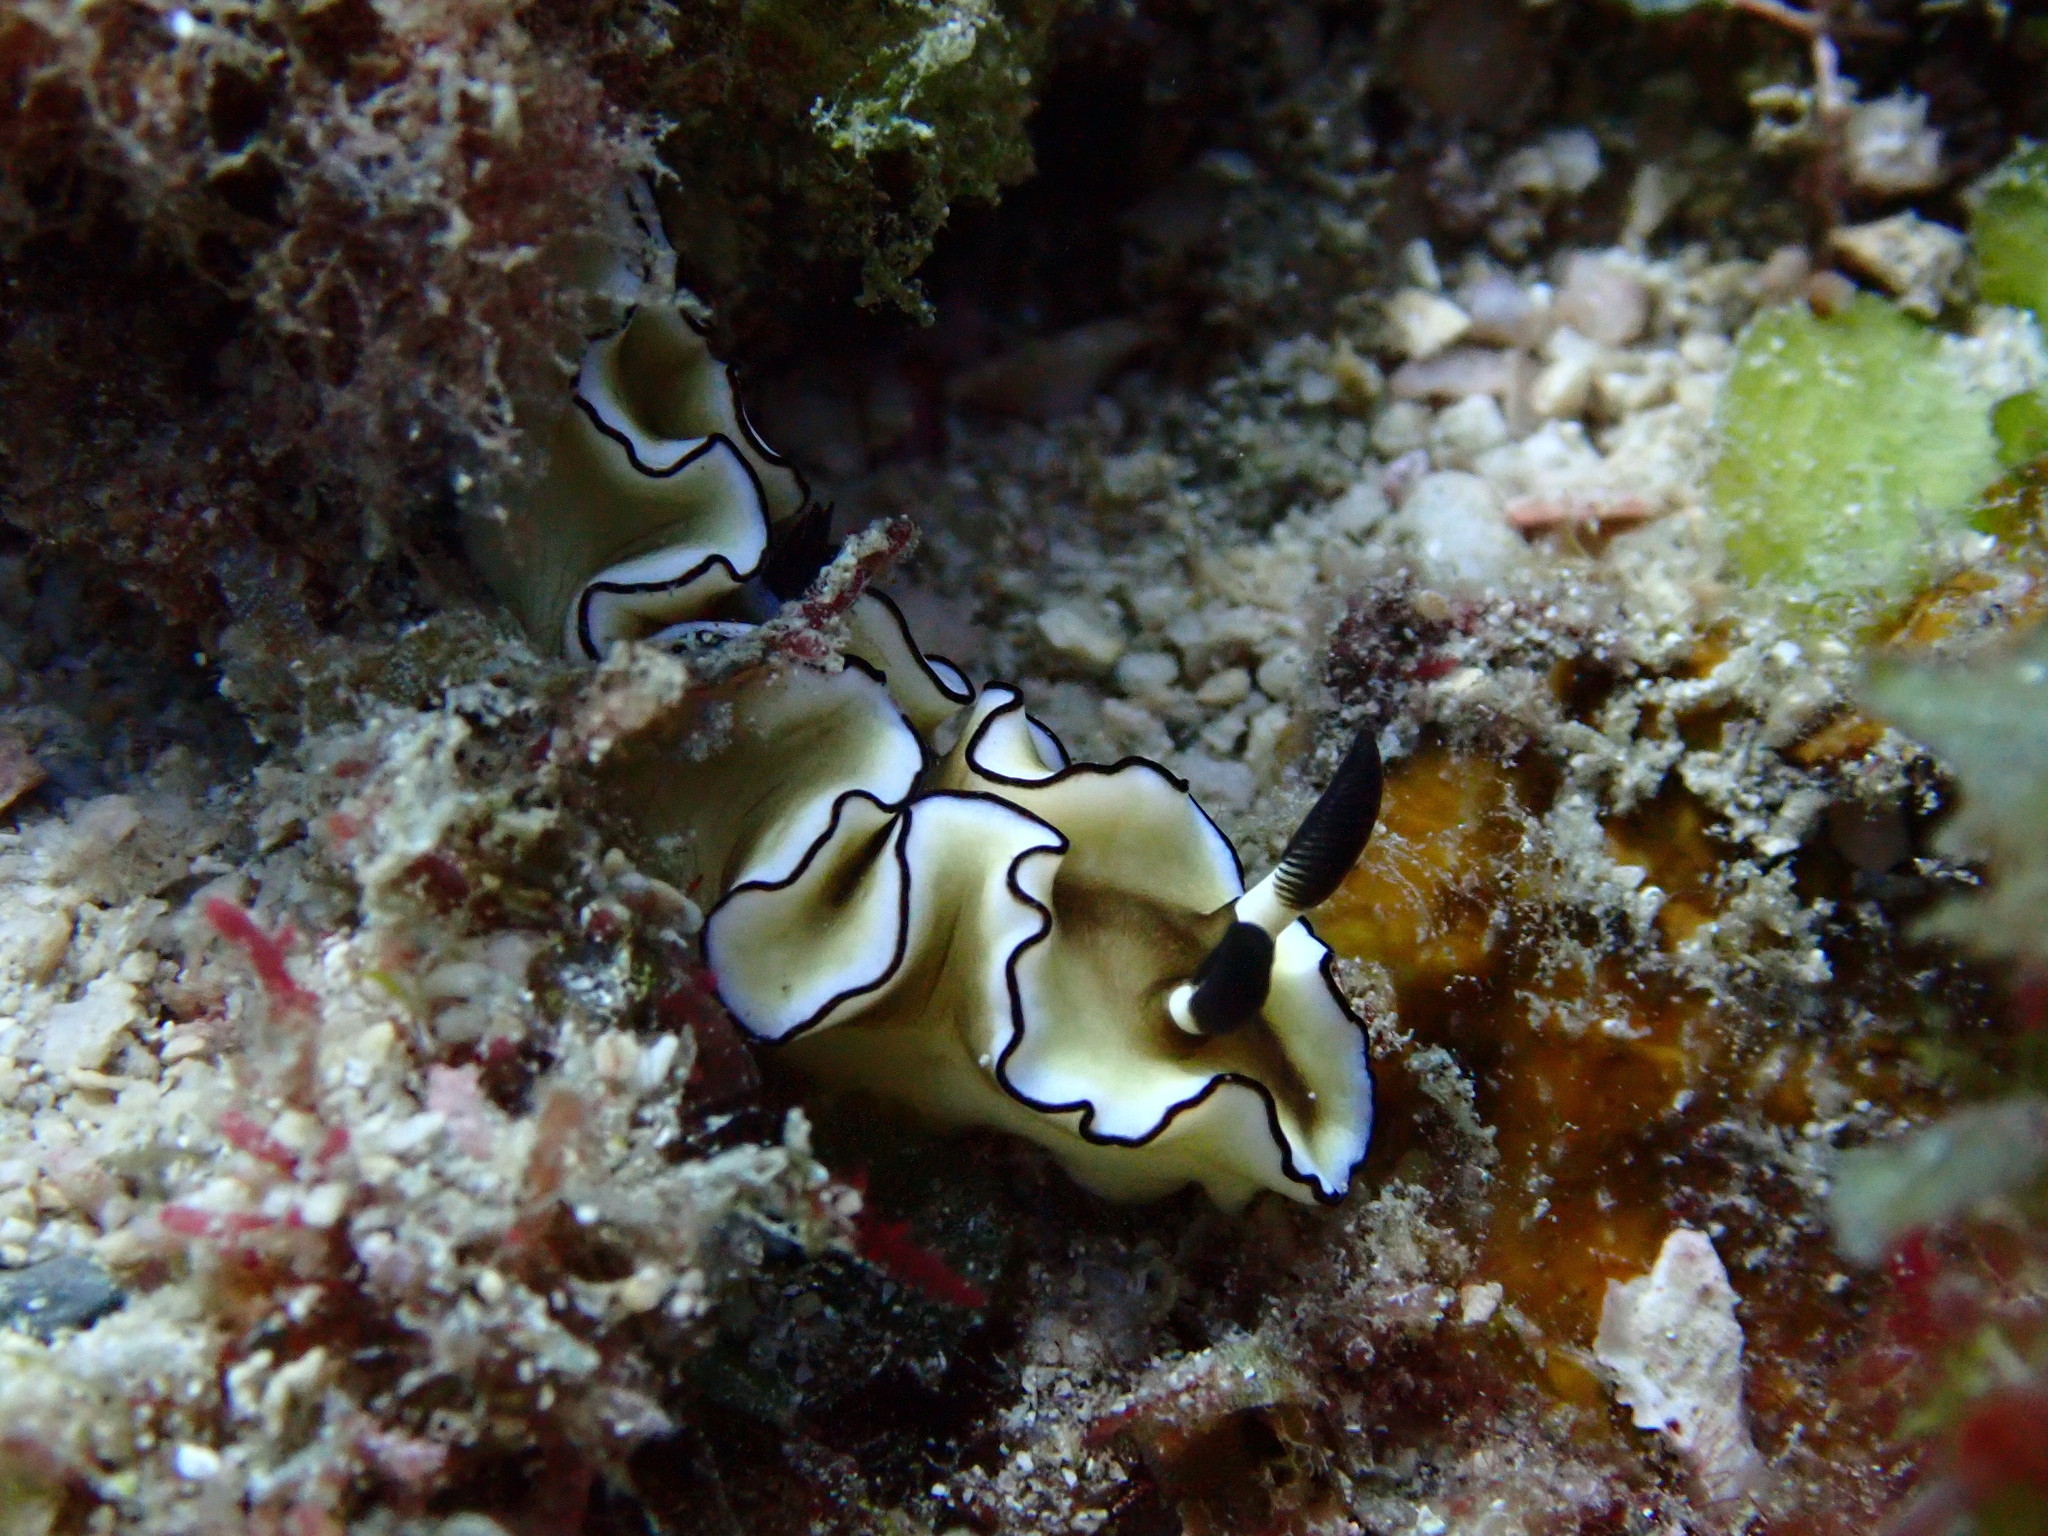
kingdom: Animalia
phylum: Mollusca
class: Gastropoda
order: Nudibranchia
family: Chromodorididae
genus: Doriprismatica
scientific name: Doriprismatica atromarginata
